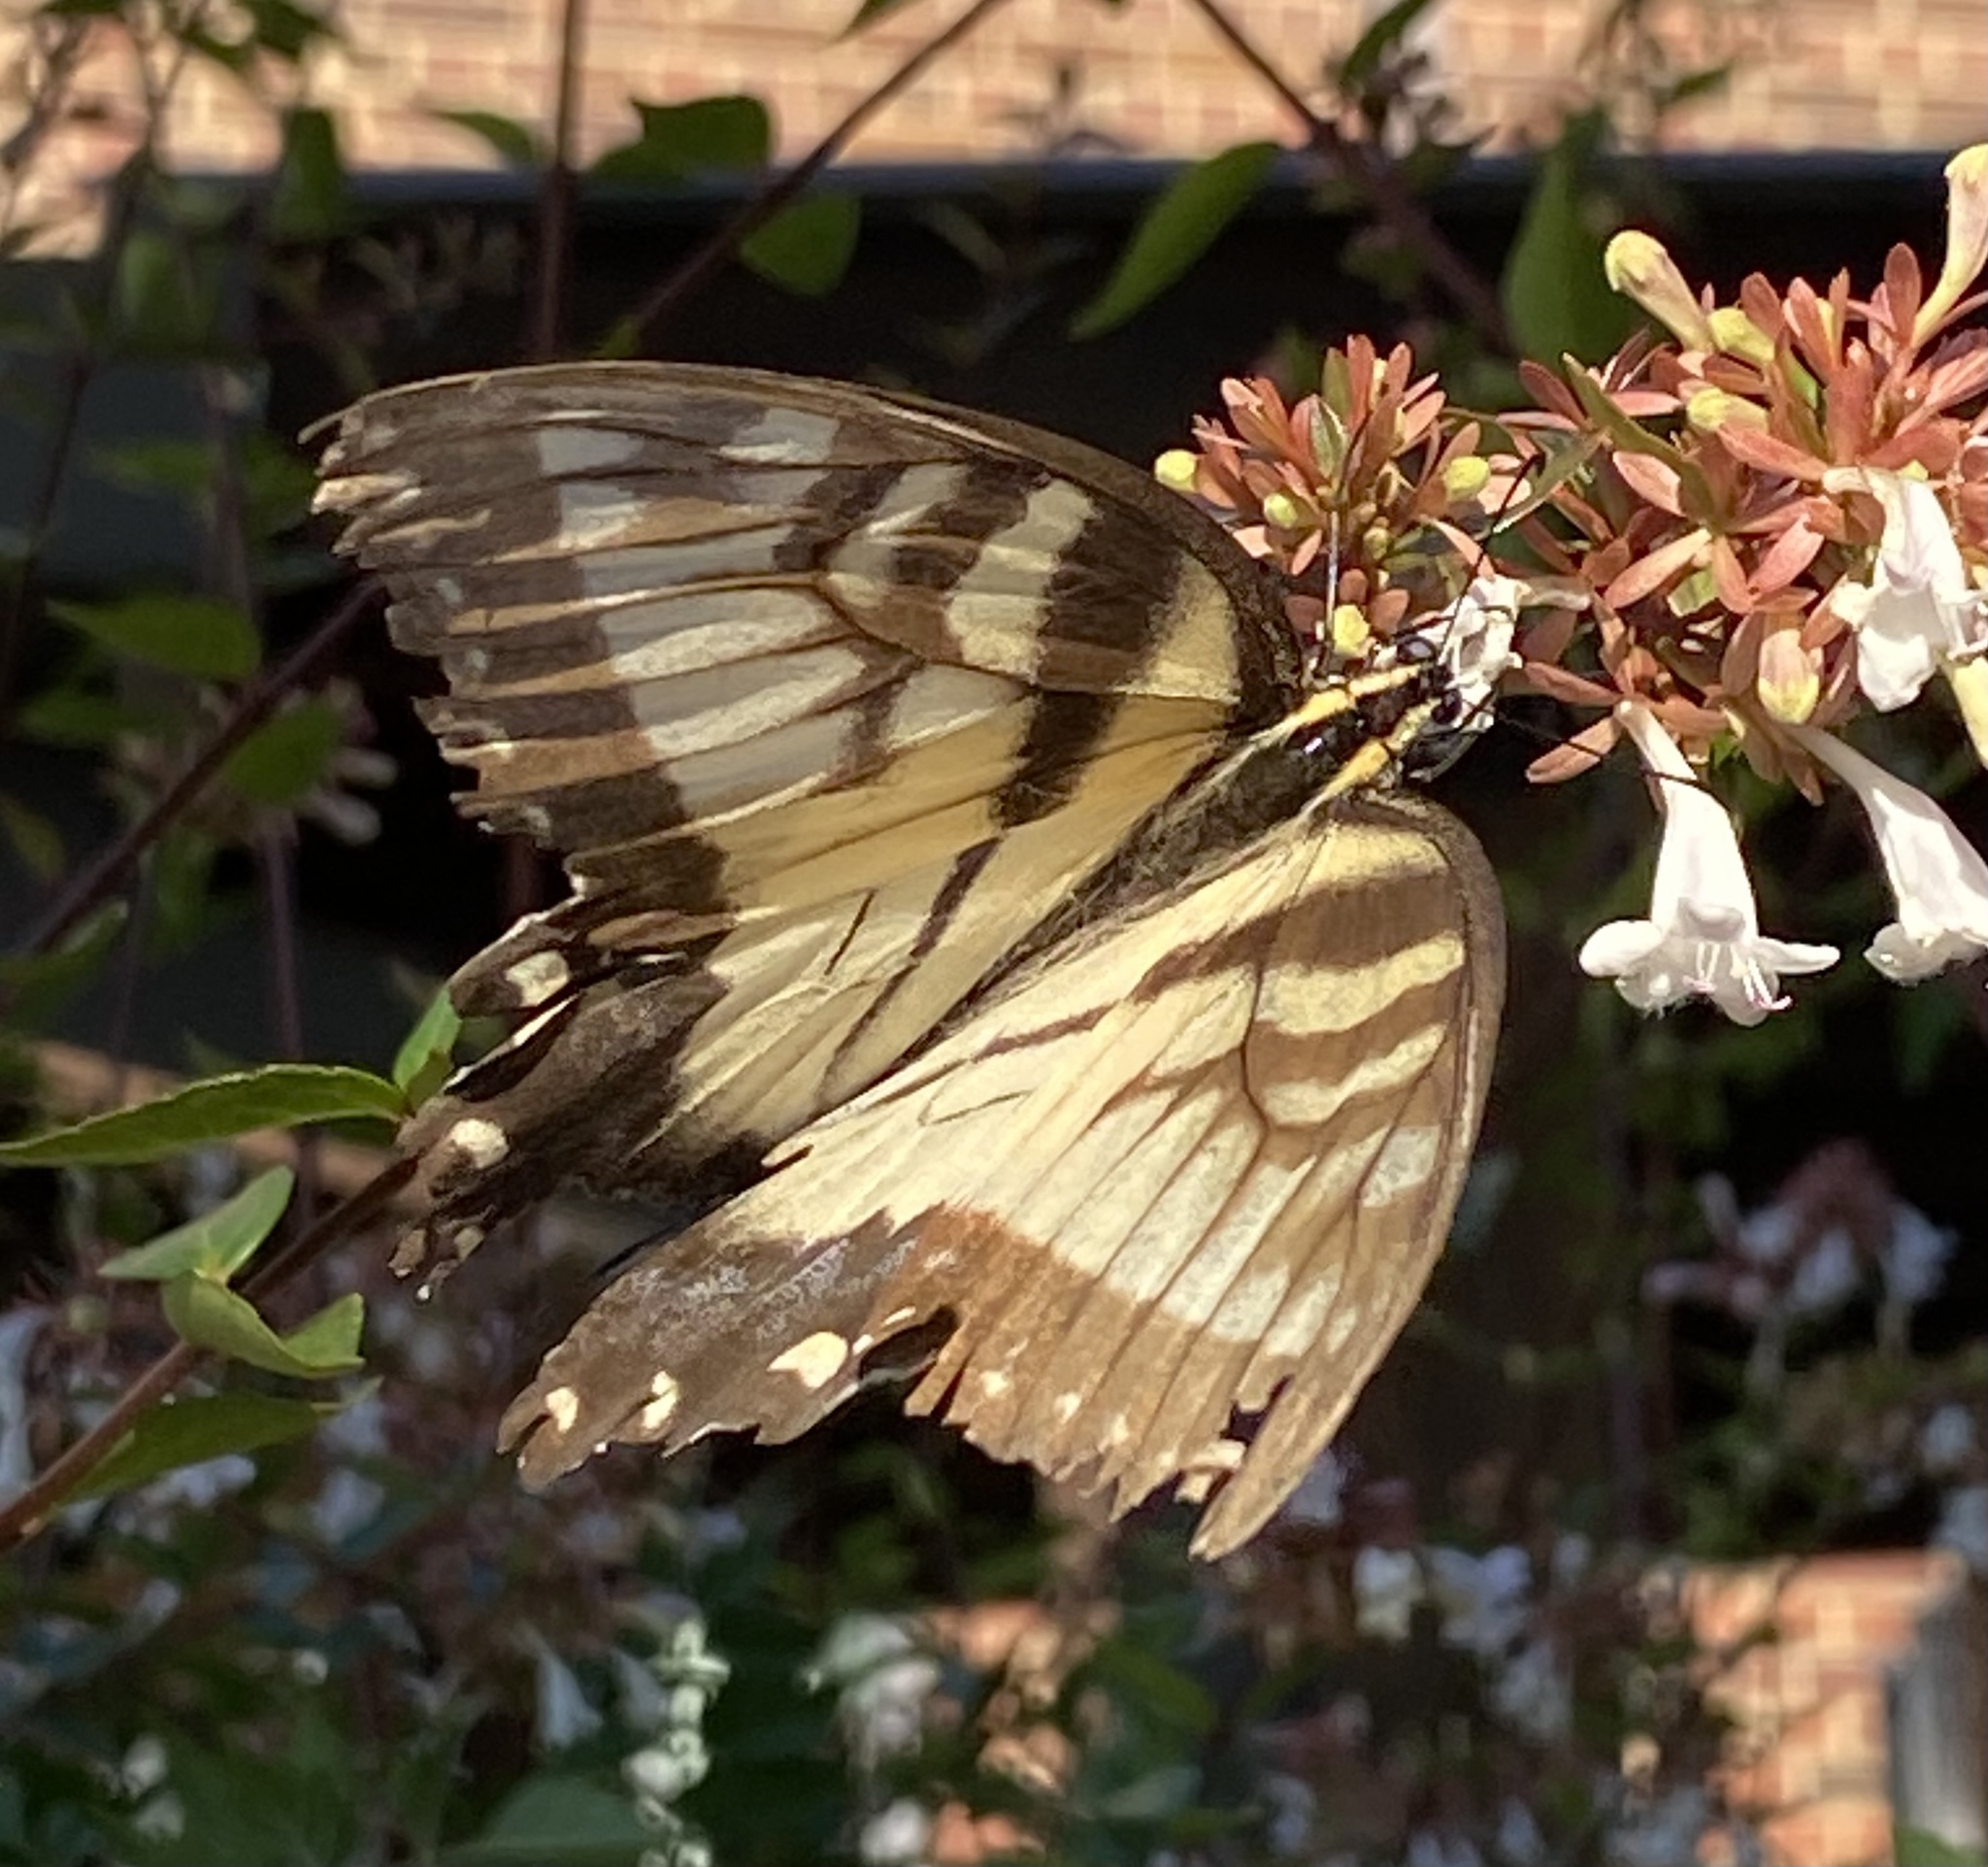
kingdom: Animalia
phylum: Arthropoda
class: Insecta
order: Lepidoptera
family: Papilionidae
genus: Papilio
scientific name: Papilio glaucus
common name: Tiger swallowtail
